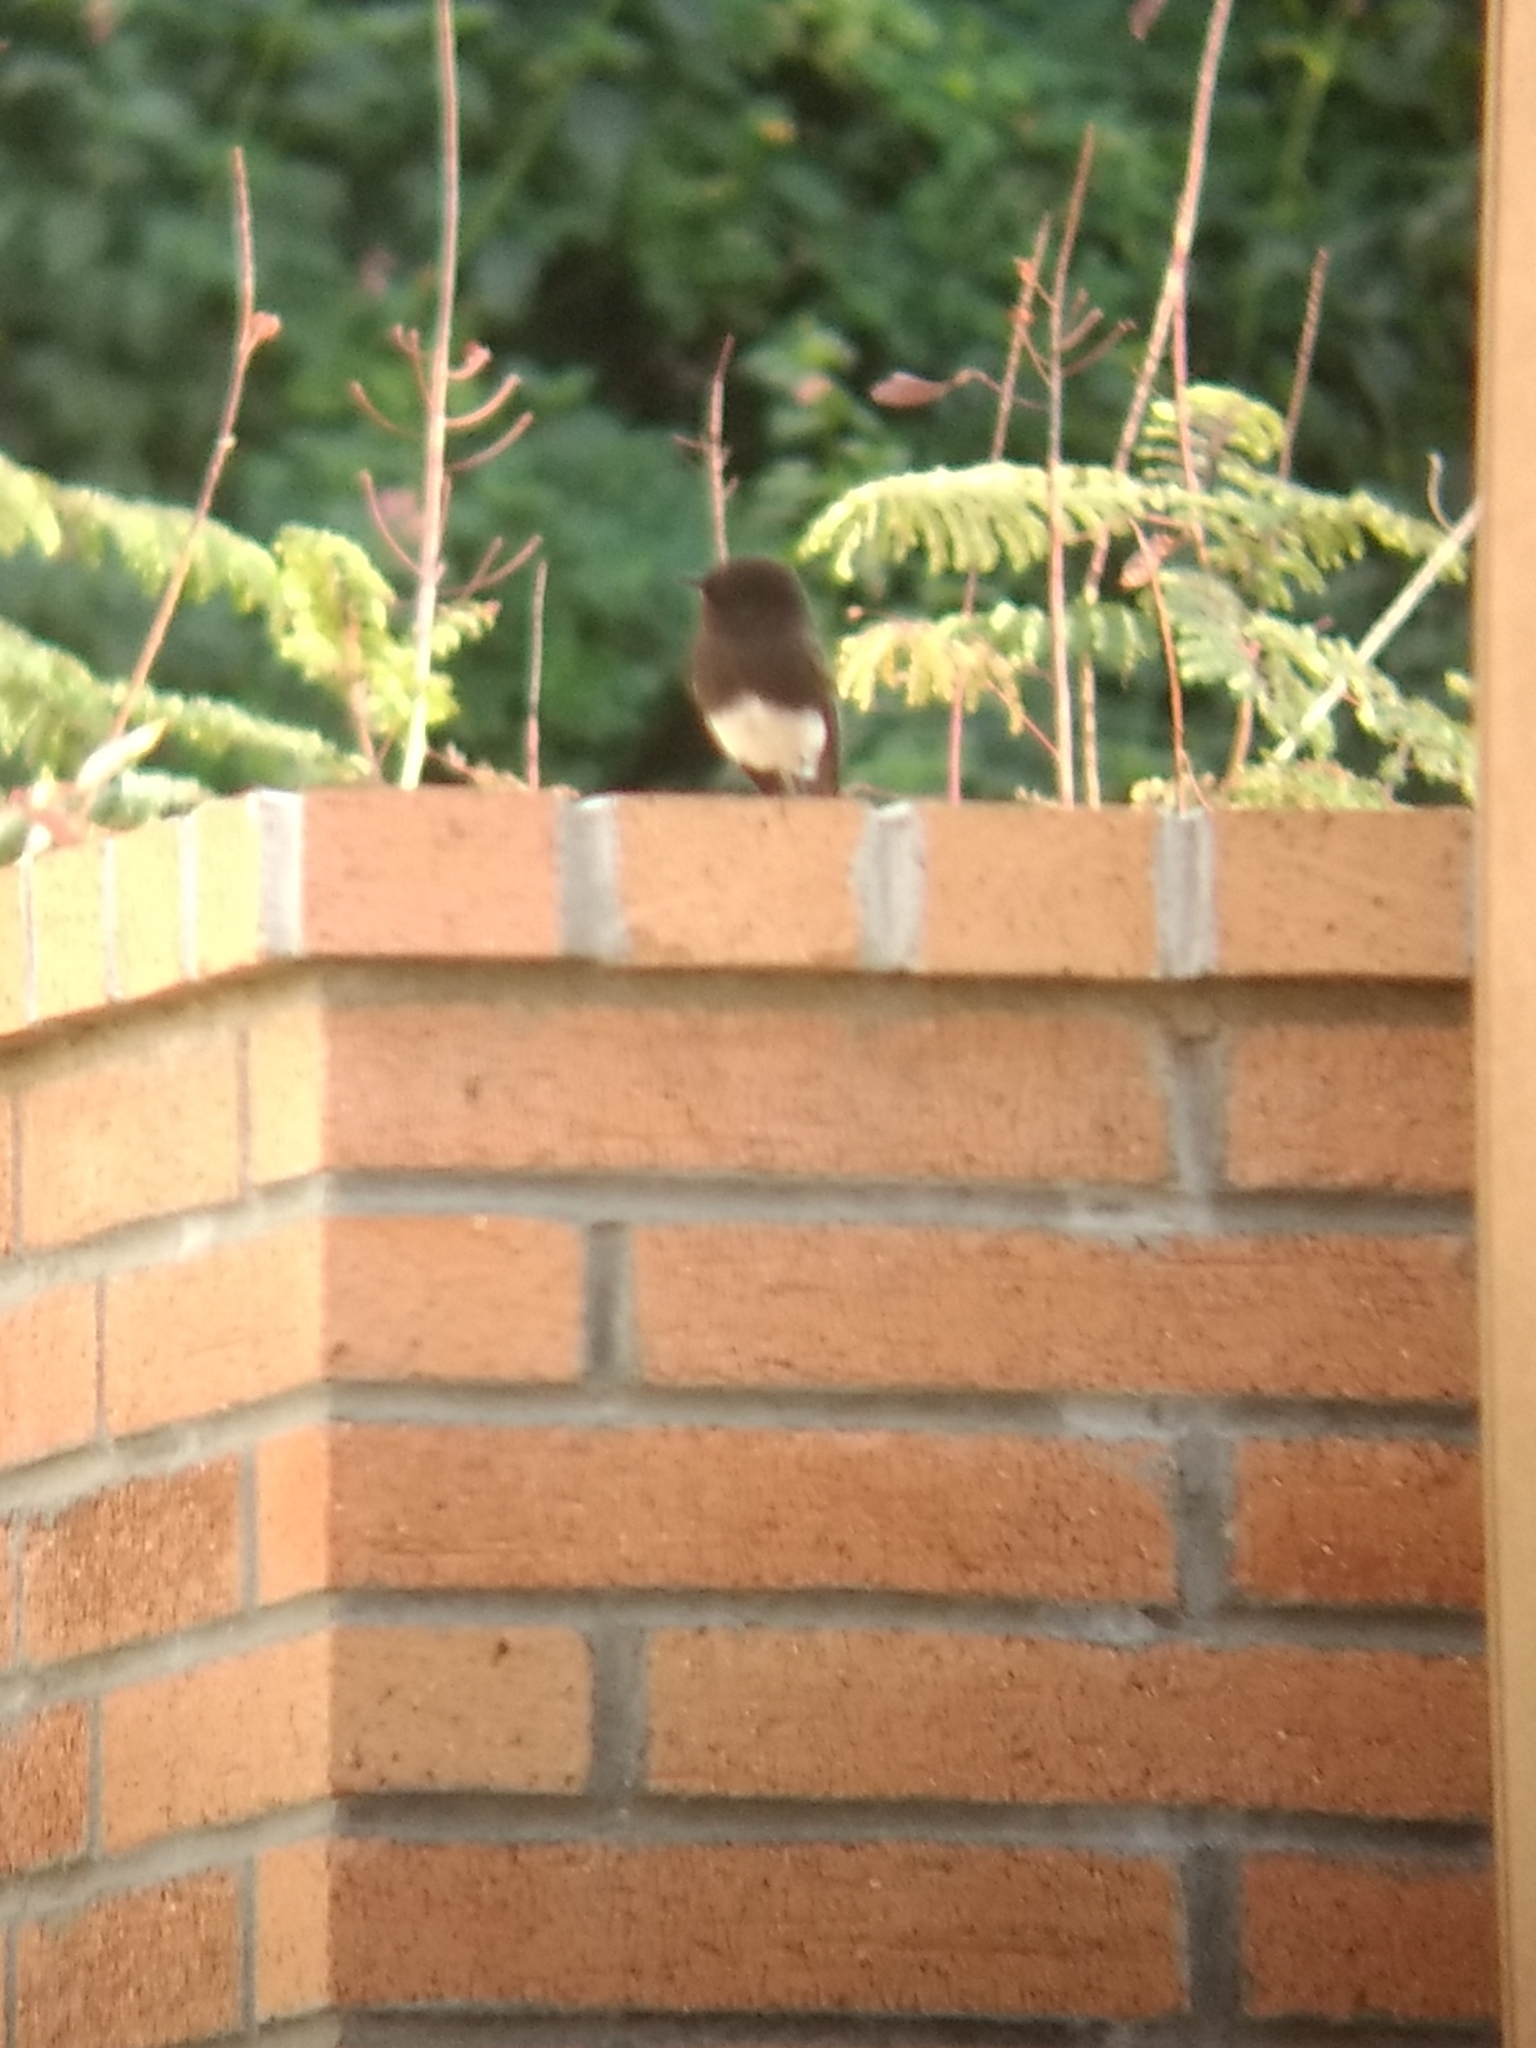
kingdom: Animalia
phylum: Chordata
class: Aves
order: Passeriformes
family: Tyrannidae
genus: Sayornis
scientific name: Sayornis nigricans
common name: Black phoebe
